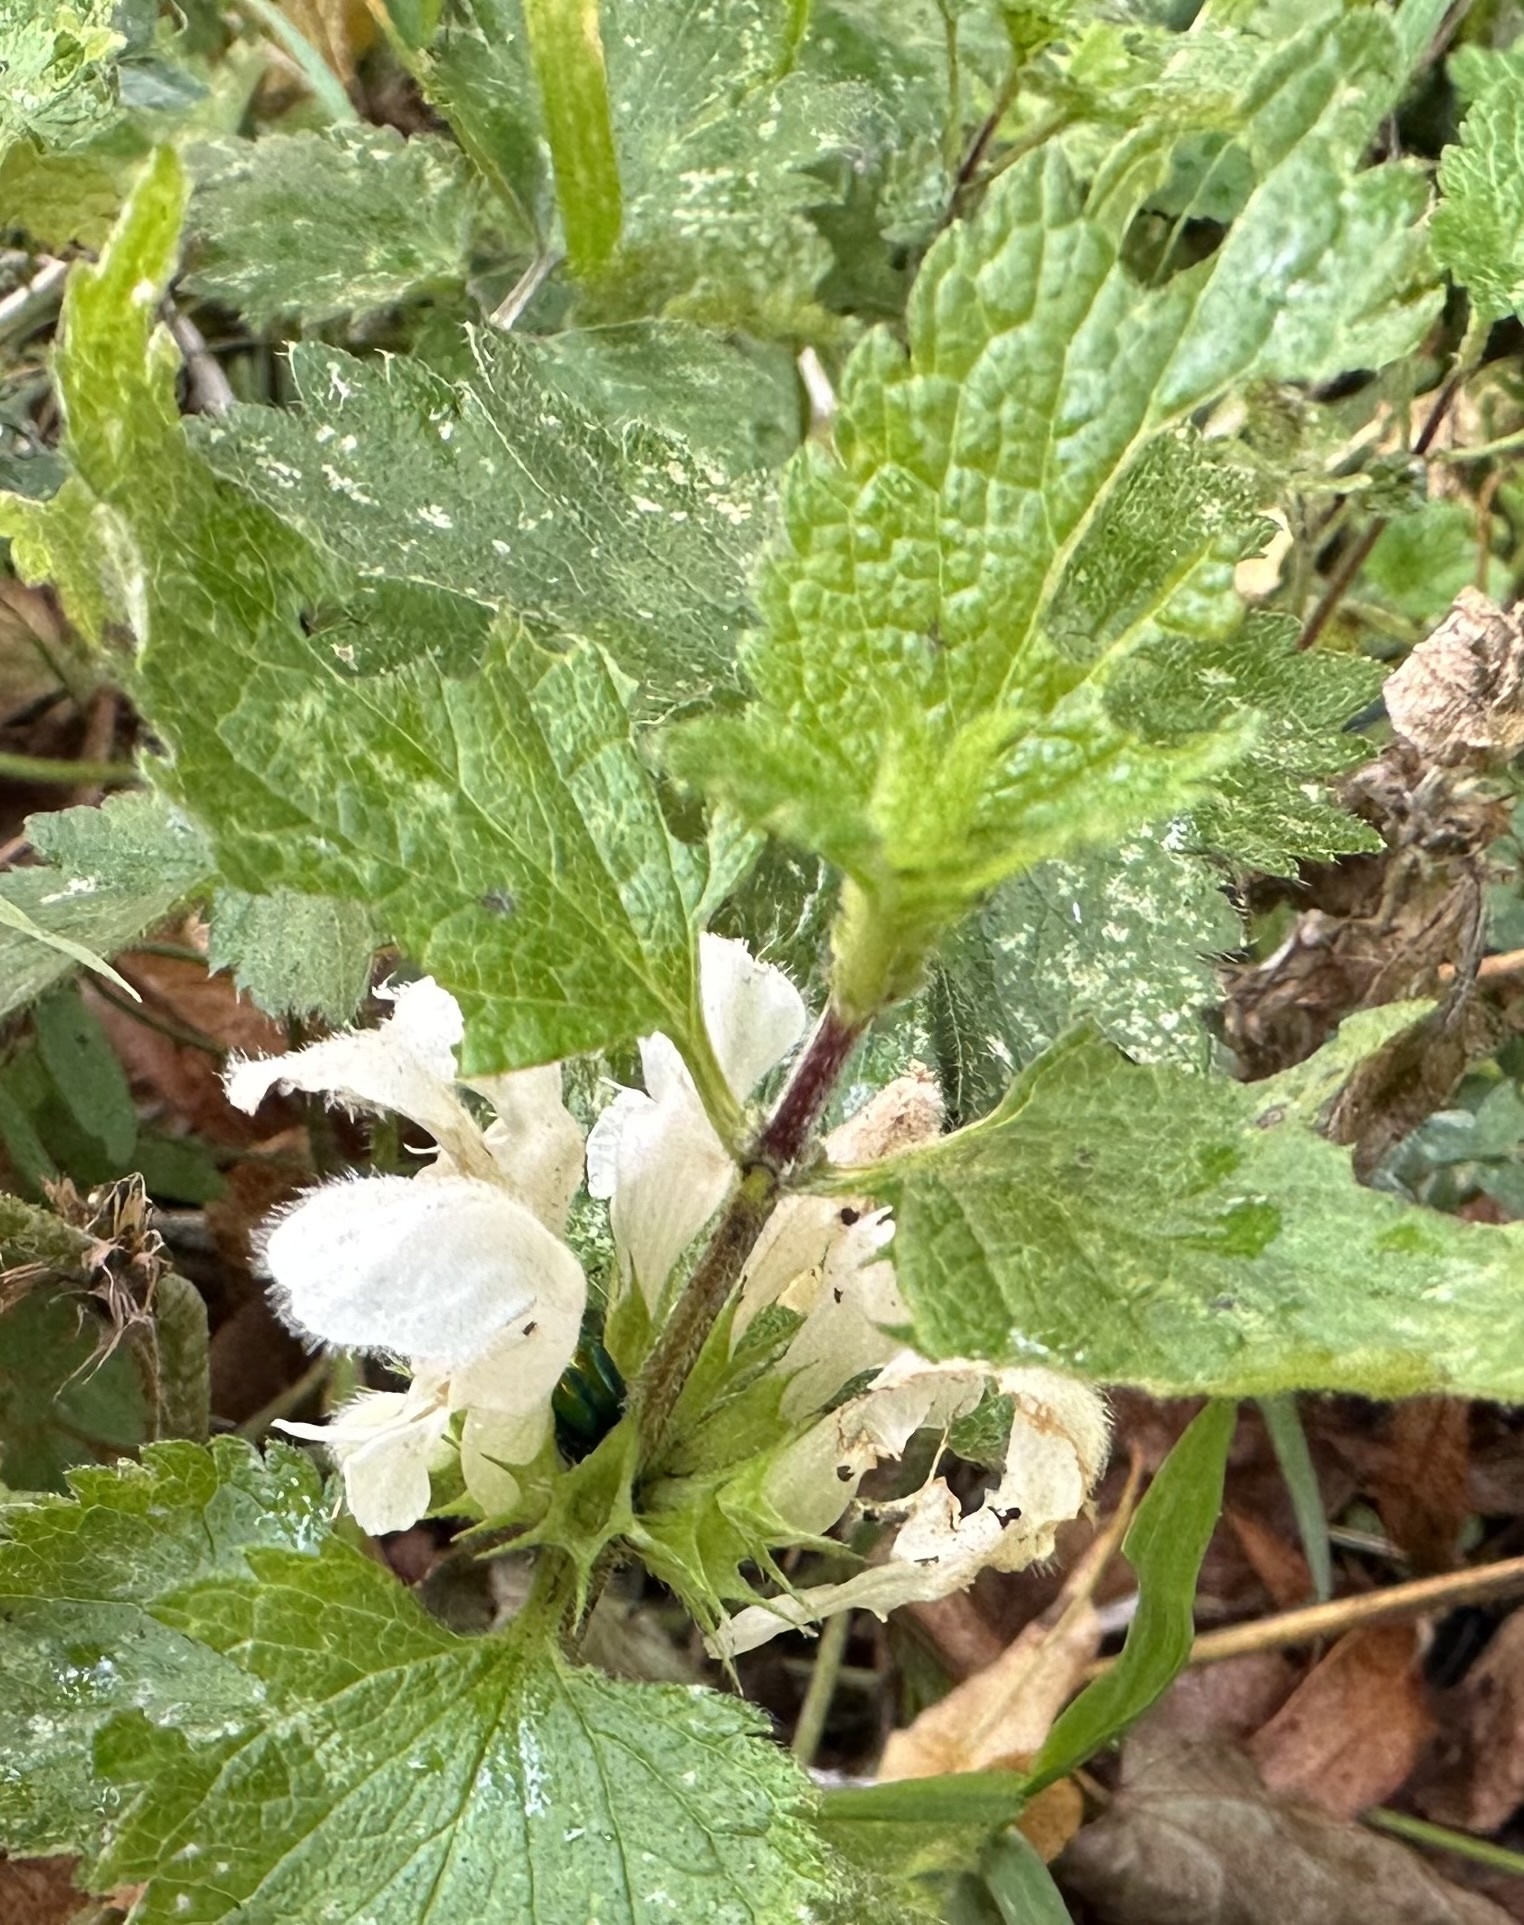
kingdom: Plantae
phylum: Tracheophyta
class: Magnoliopsida
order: Lamiales
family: Lamiaceae
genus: Lamium
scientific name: Lamium album
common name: White dead-nettle
